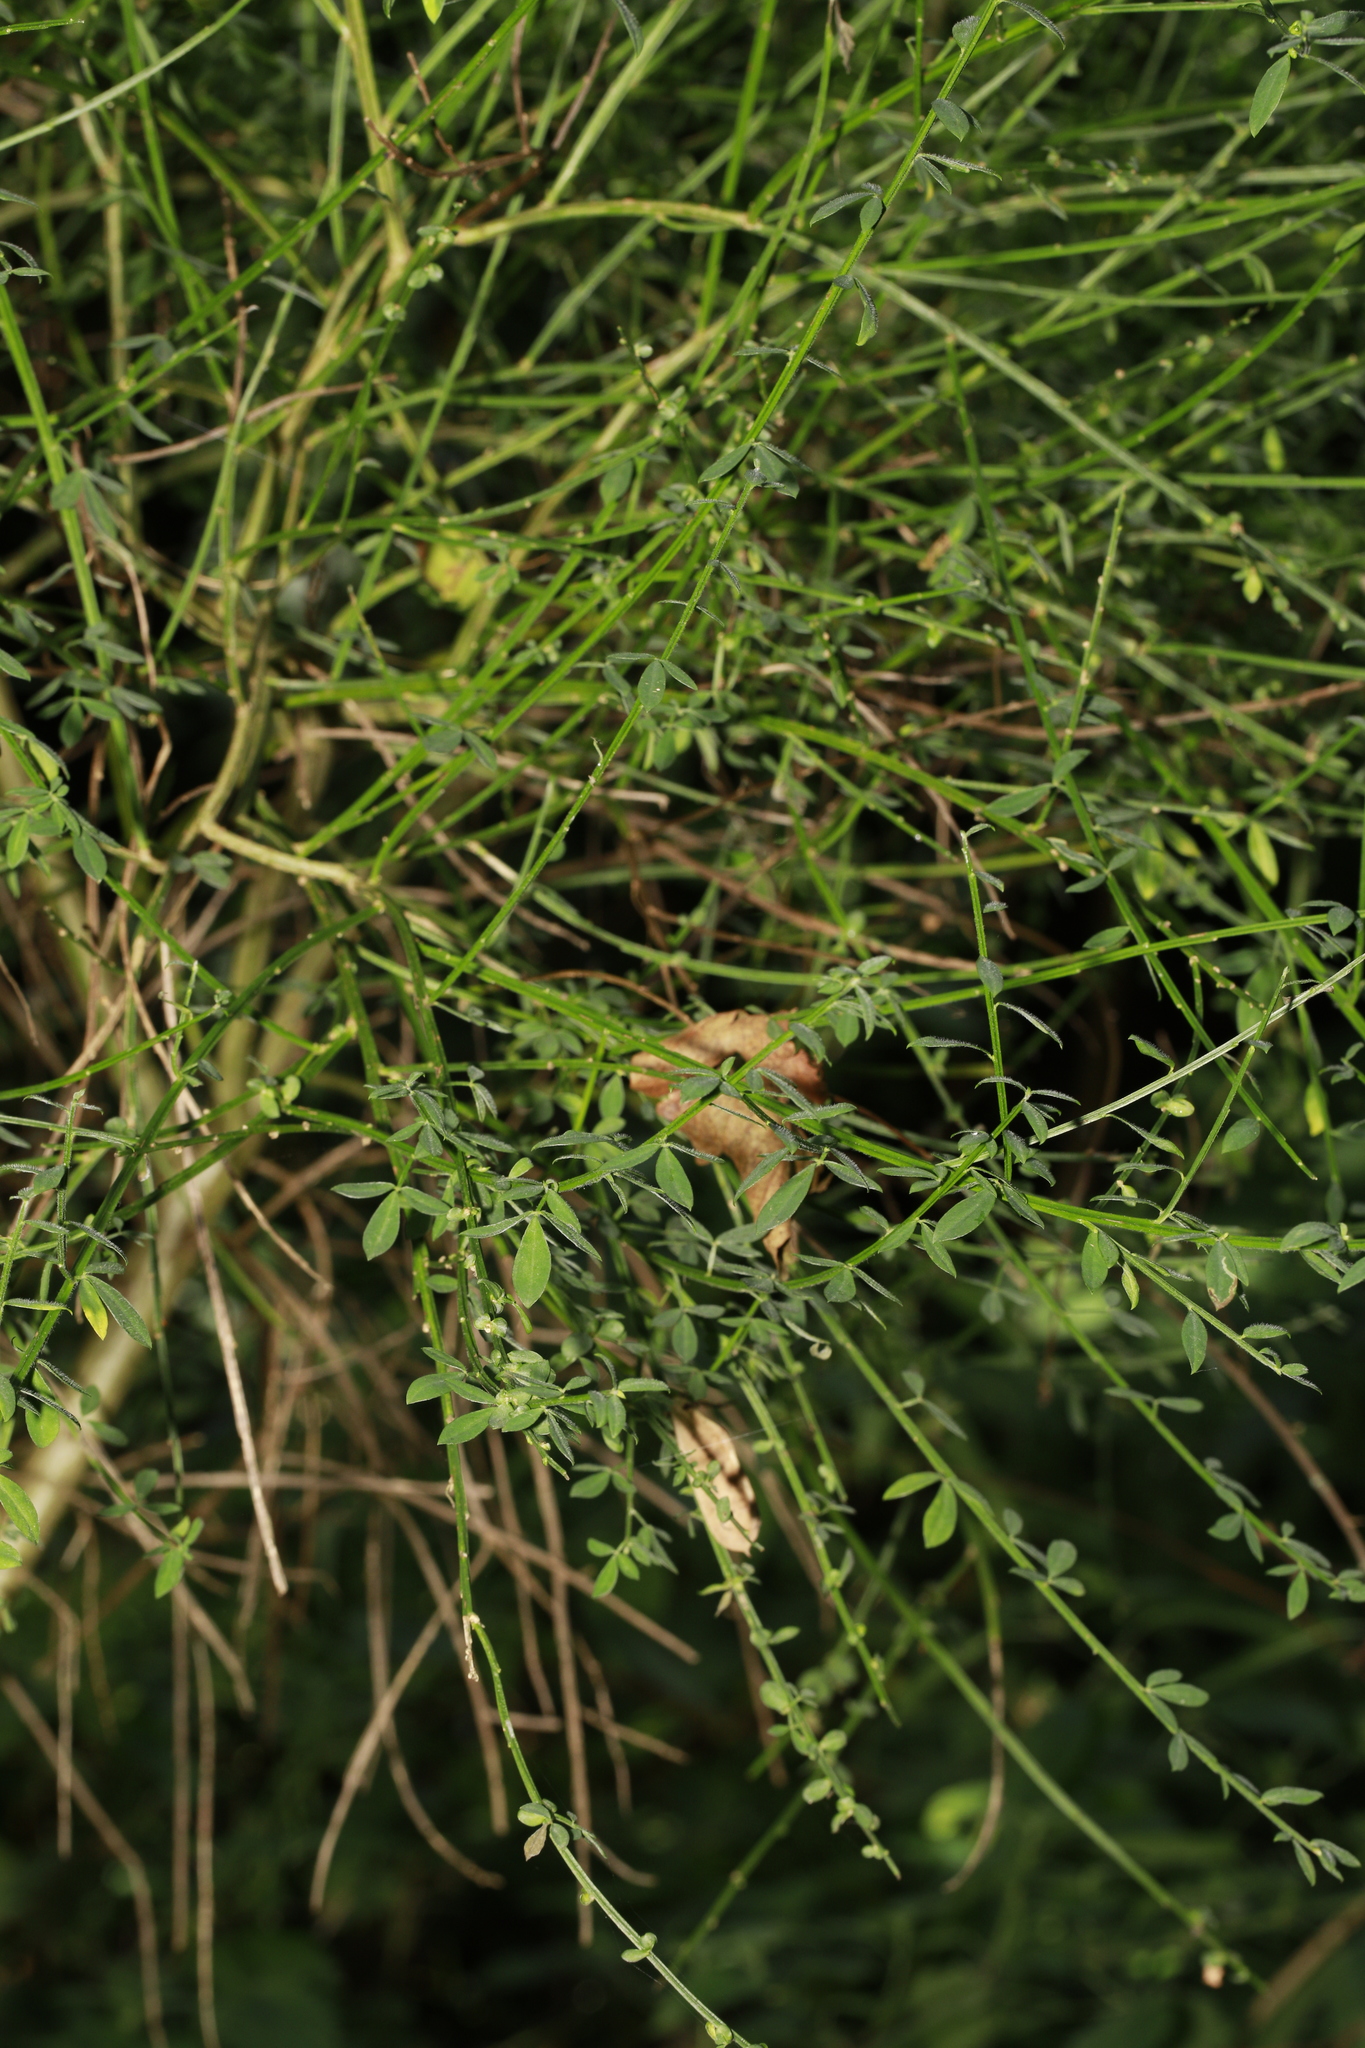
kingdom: Plantae
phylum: Tracheophyta
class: Magnoliopsida
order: Fabales
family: Fabaceae
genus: Cytisus
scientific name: Cytisus scoparius
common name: Scotch broom
